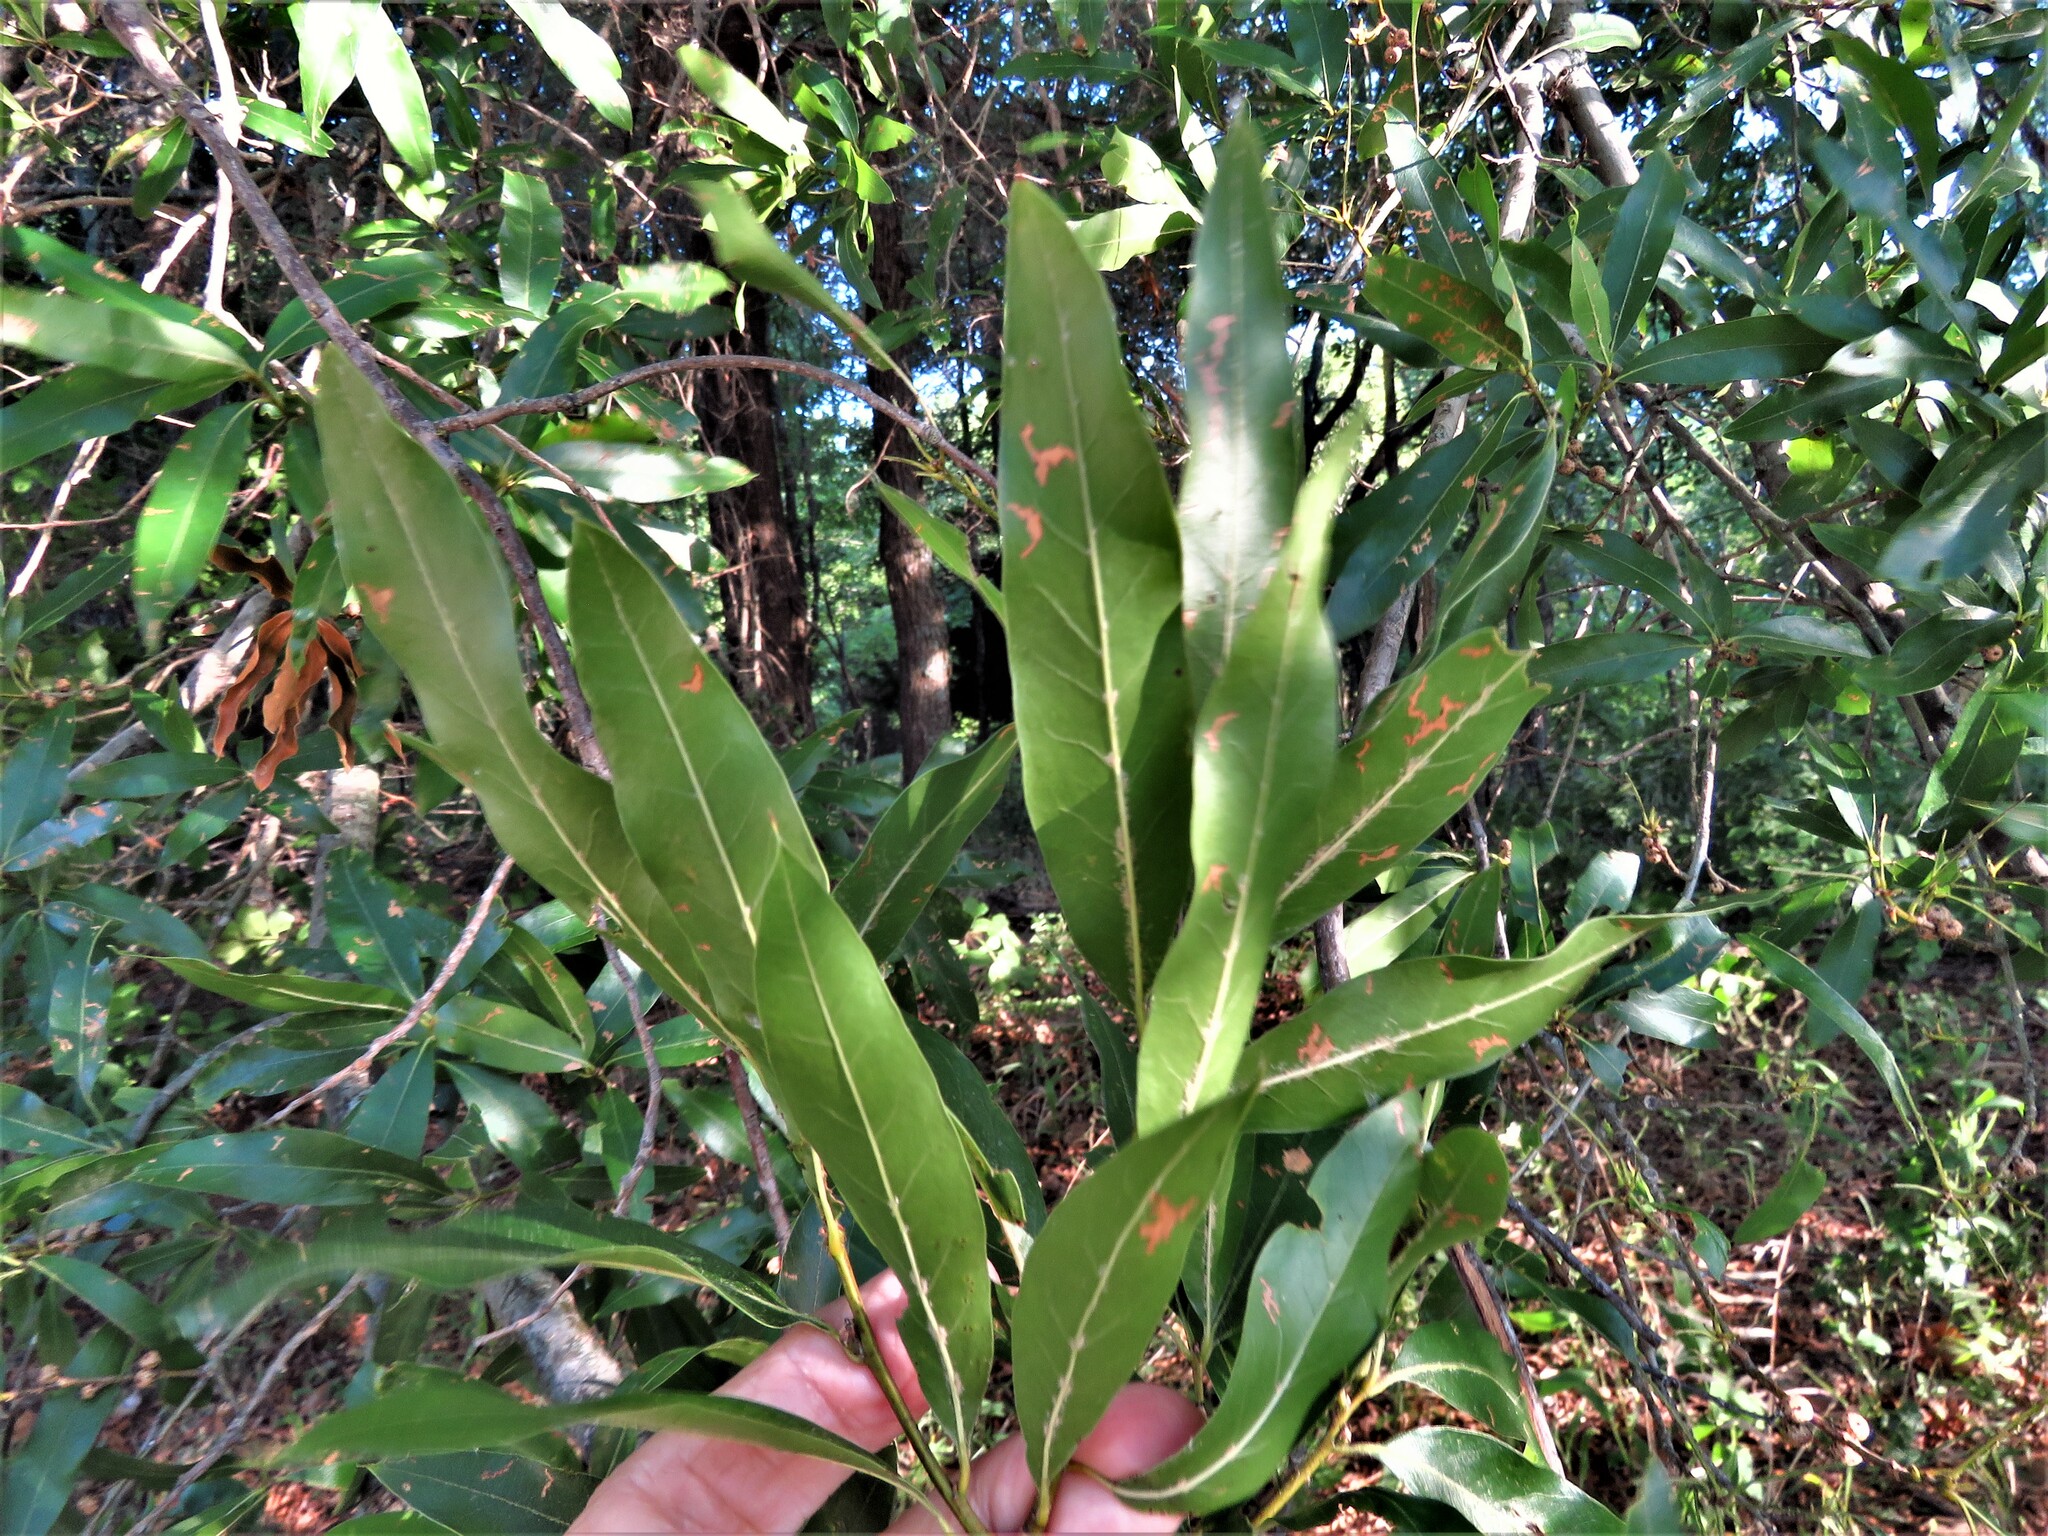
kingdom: Plantae
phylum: Tracheophyta
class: Magnoliopsida
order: Fagales
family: Fagaceae
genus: Quercus
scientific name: Quercus phellos
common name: Willow oak
